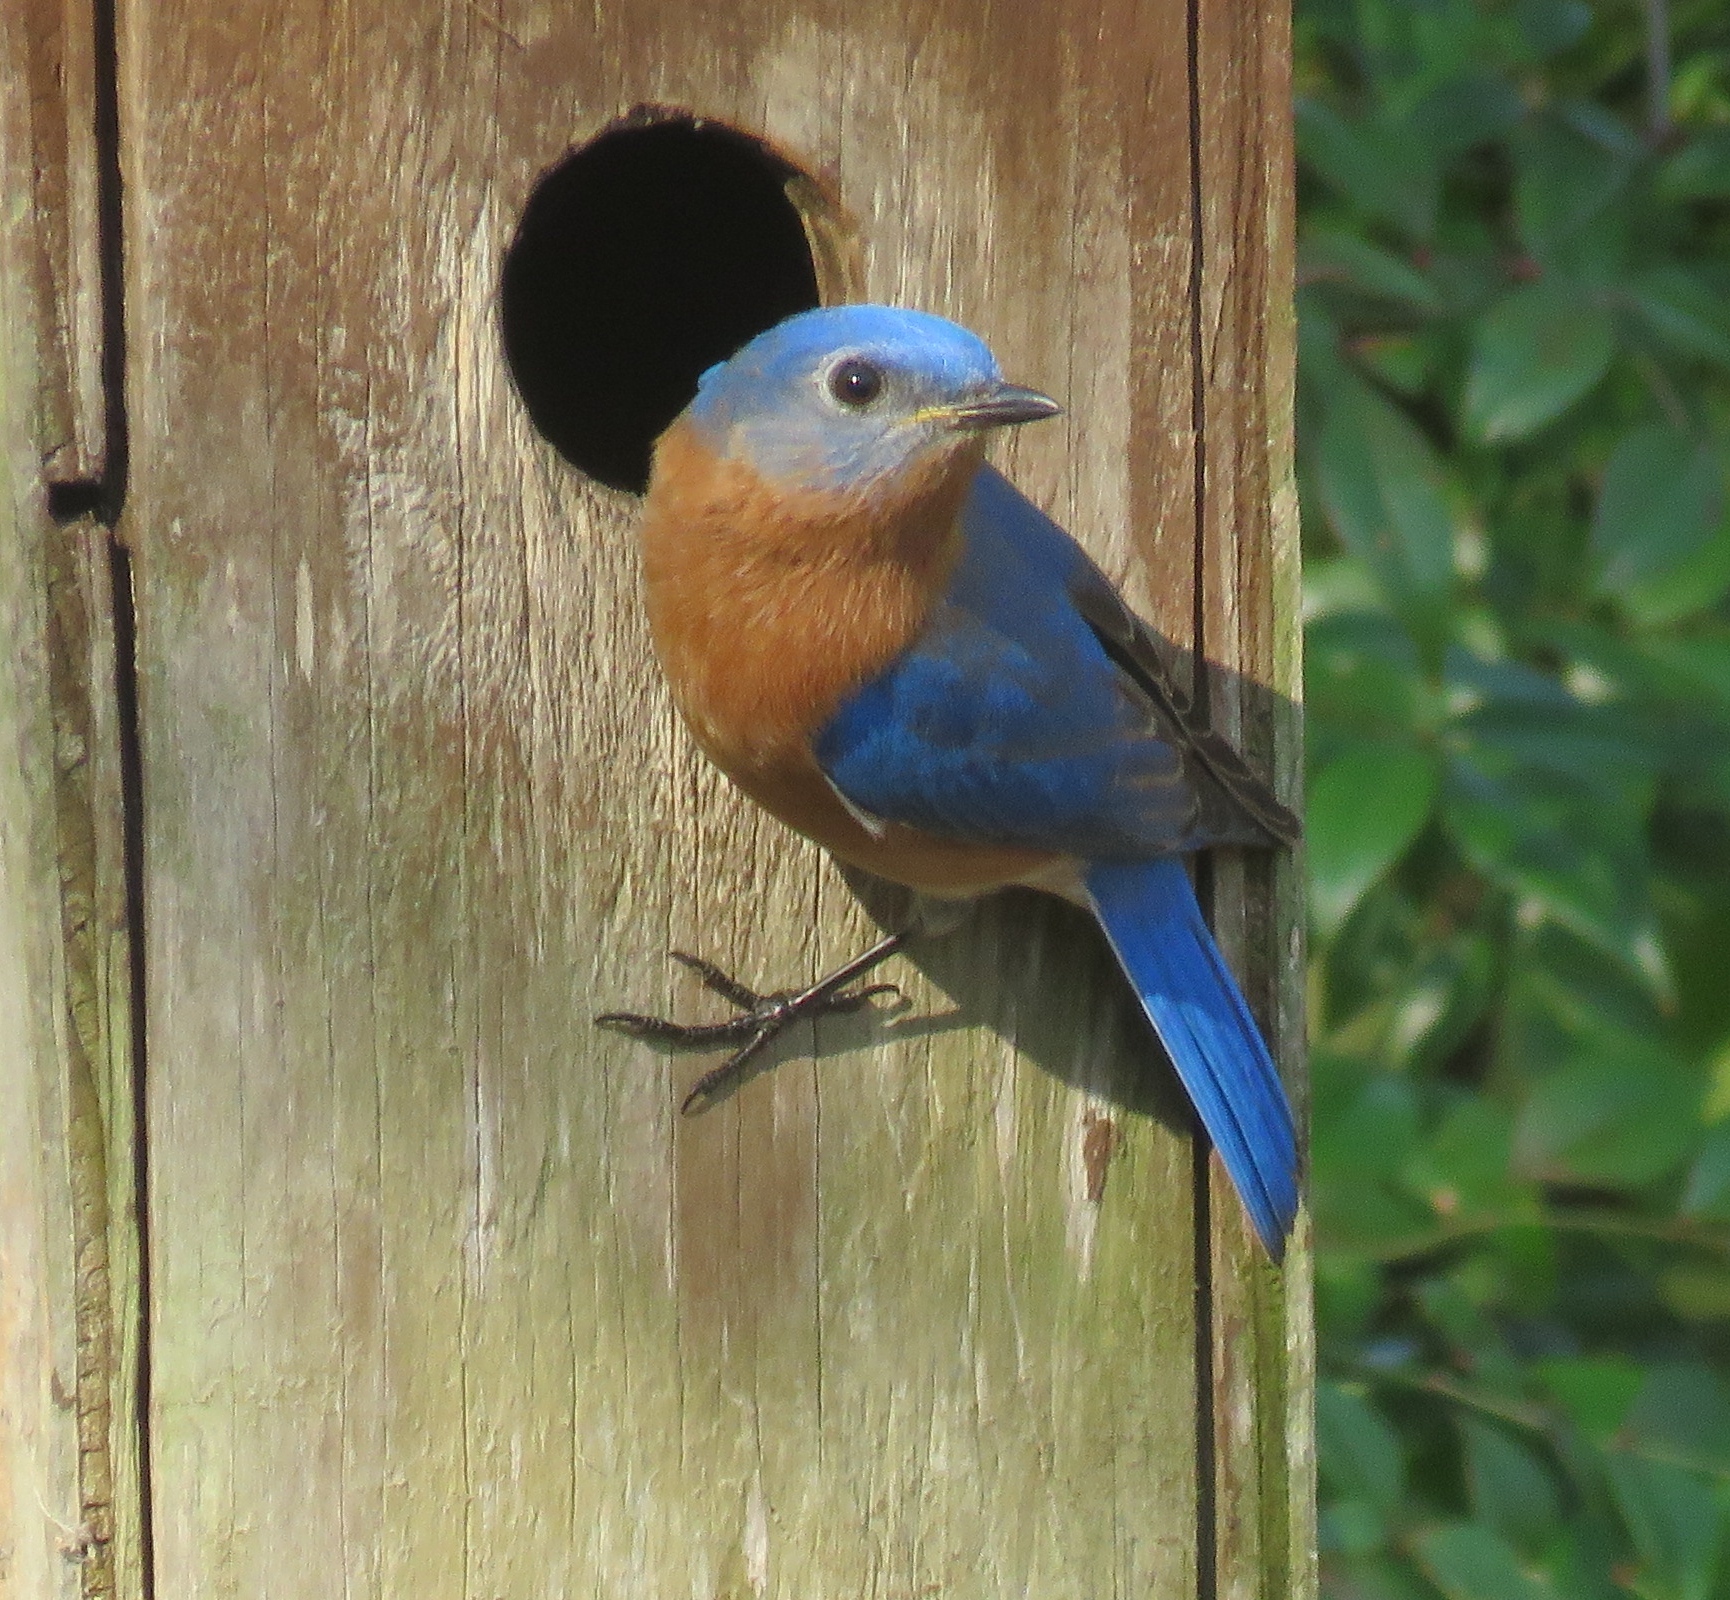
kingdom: Animalia
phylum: Chordata
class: Aves
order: Passeriformes
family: Turdidae
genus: Sialia
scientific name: Sialia sialis
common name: Eastern bluebird
